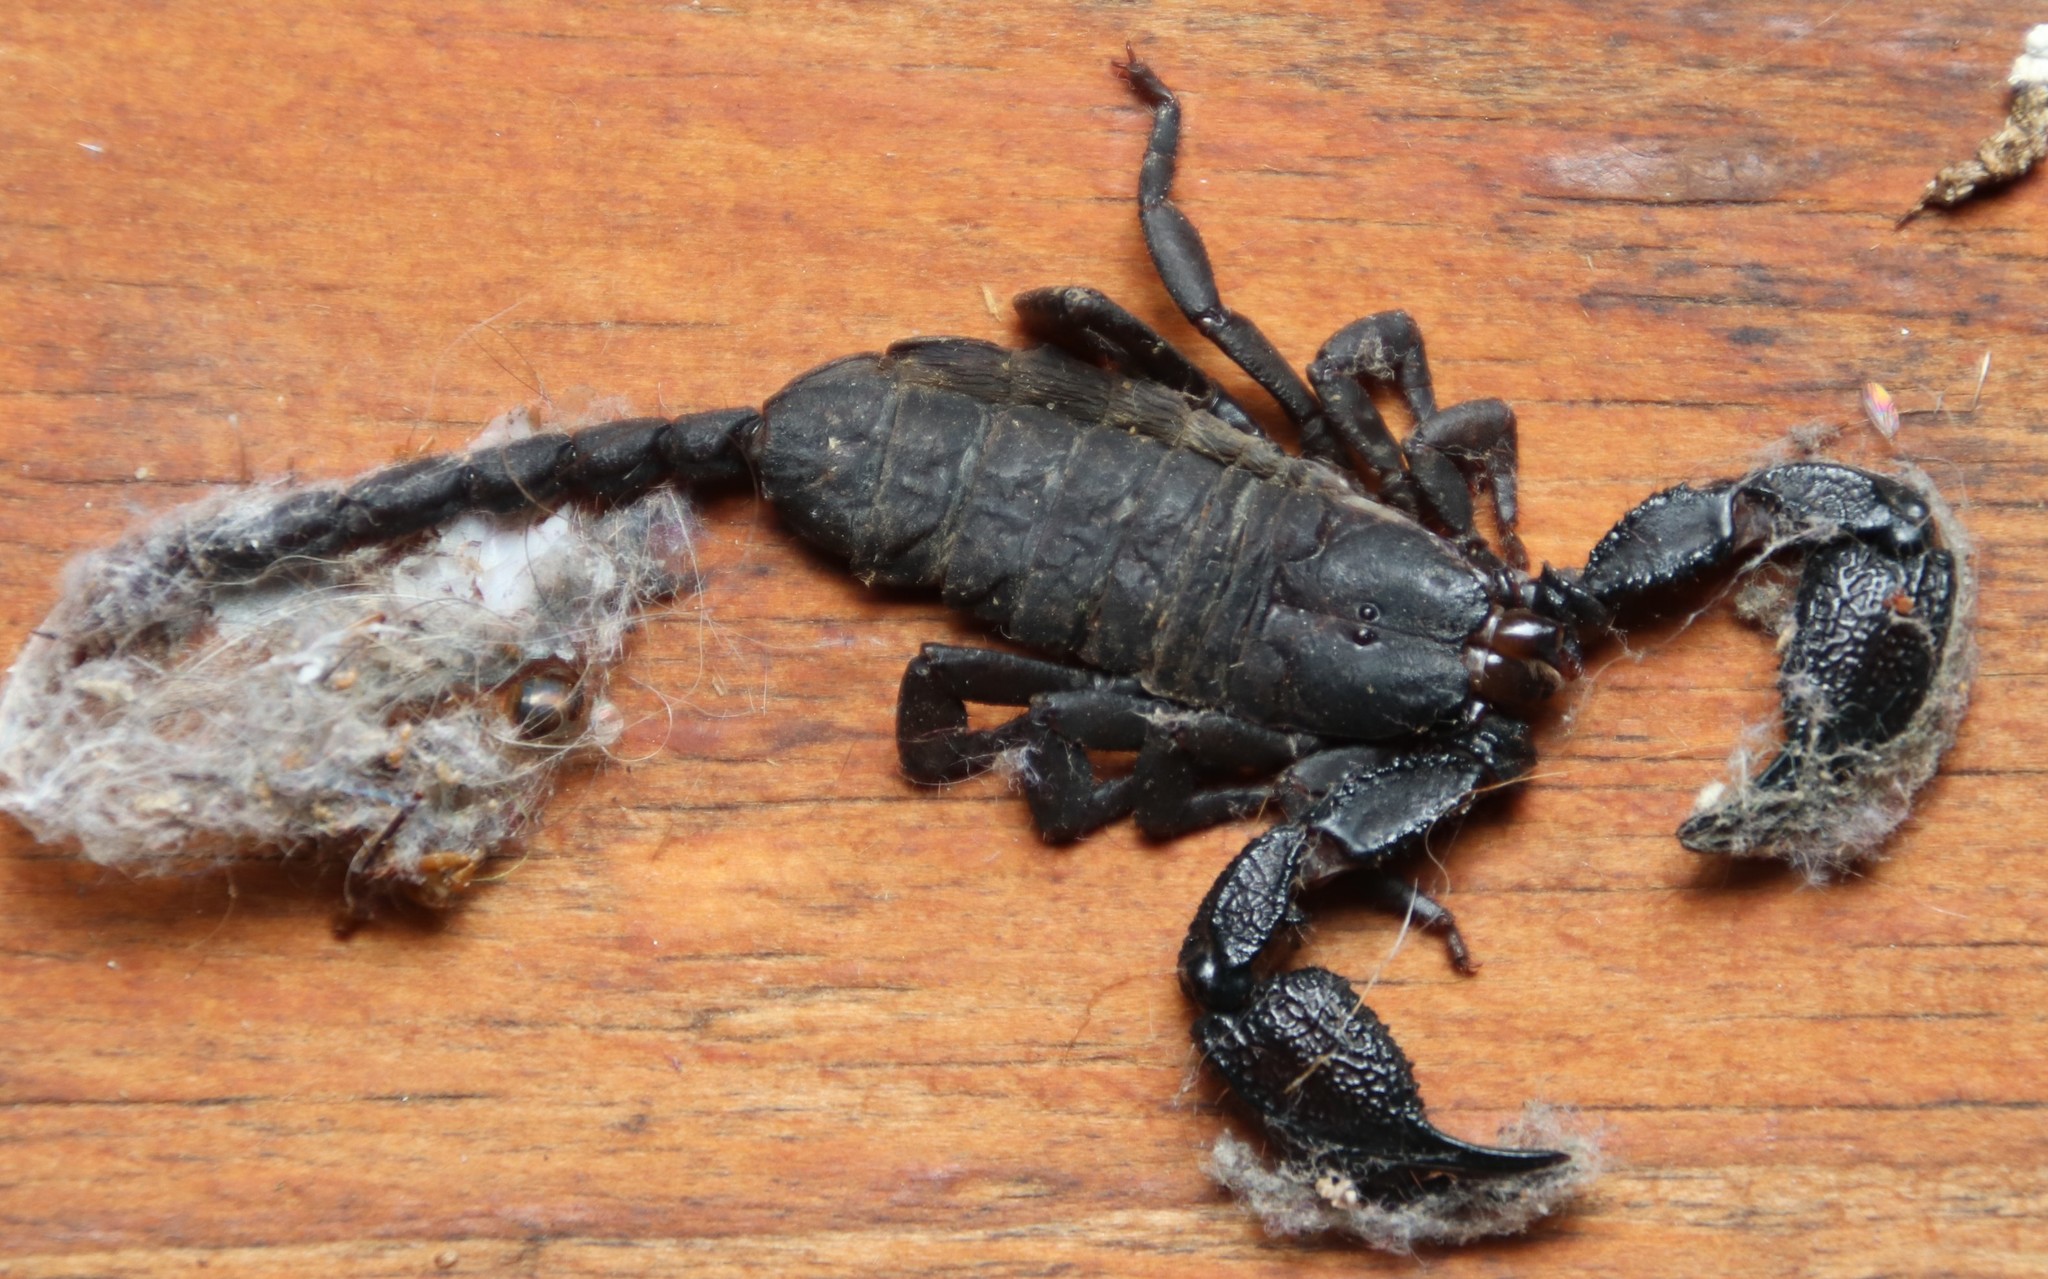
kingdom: Animalia
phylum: Arthropoda
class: Arachnida
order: Scorpiones
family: Hormuridae
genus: Opisthacanthus
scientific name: Opisthacanthus capensis
